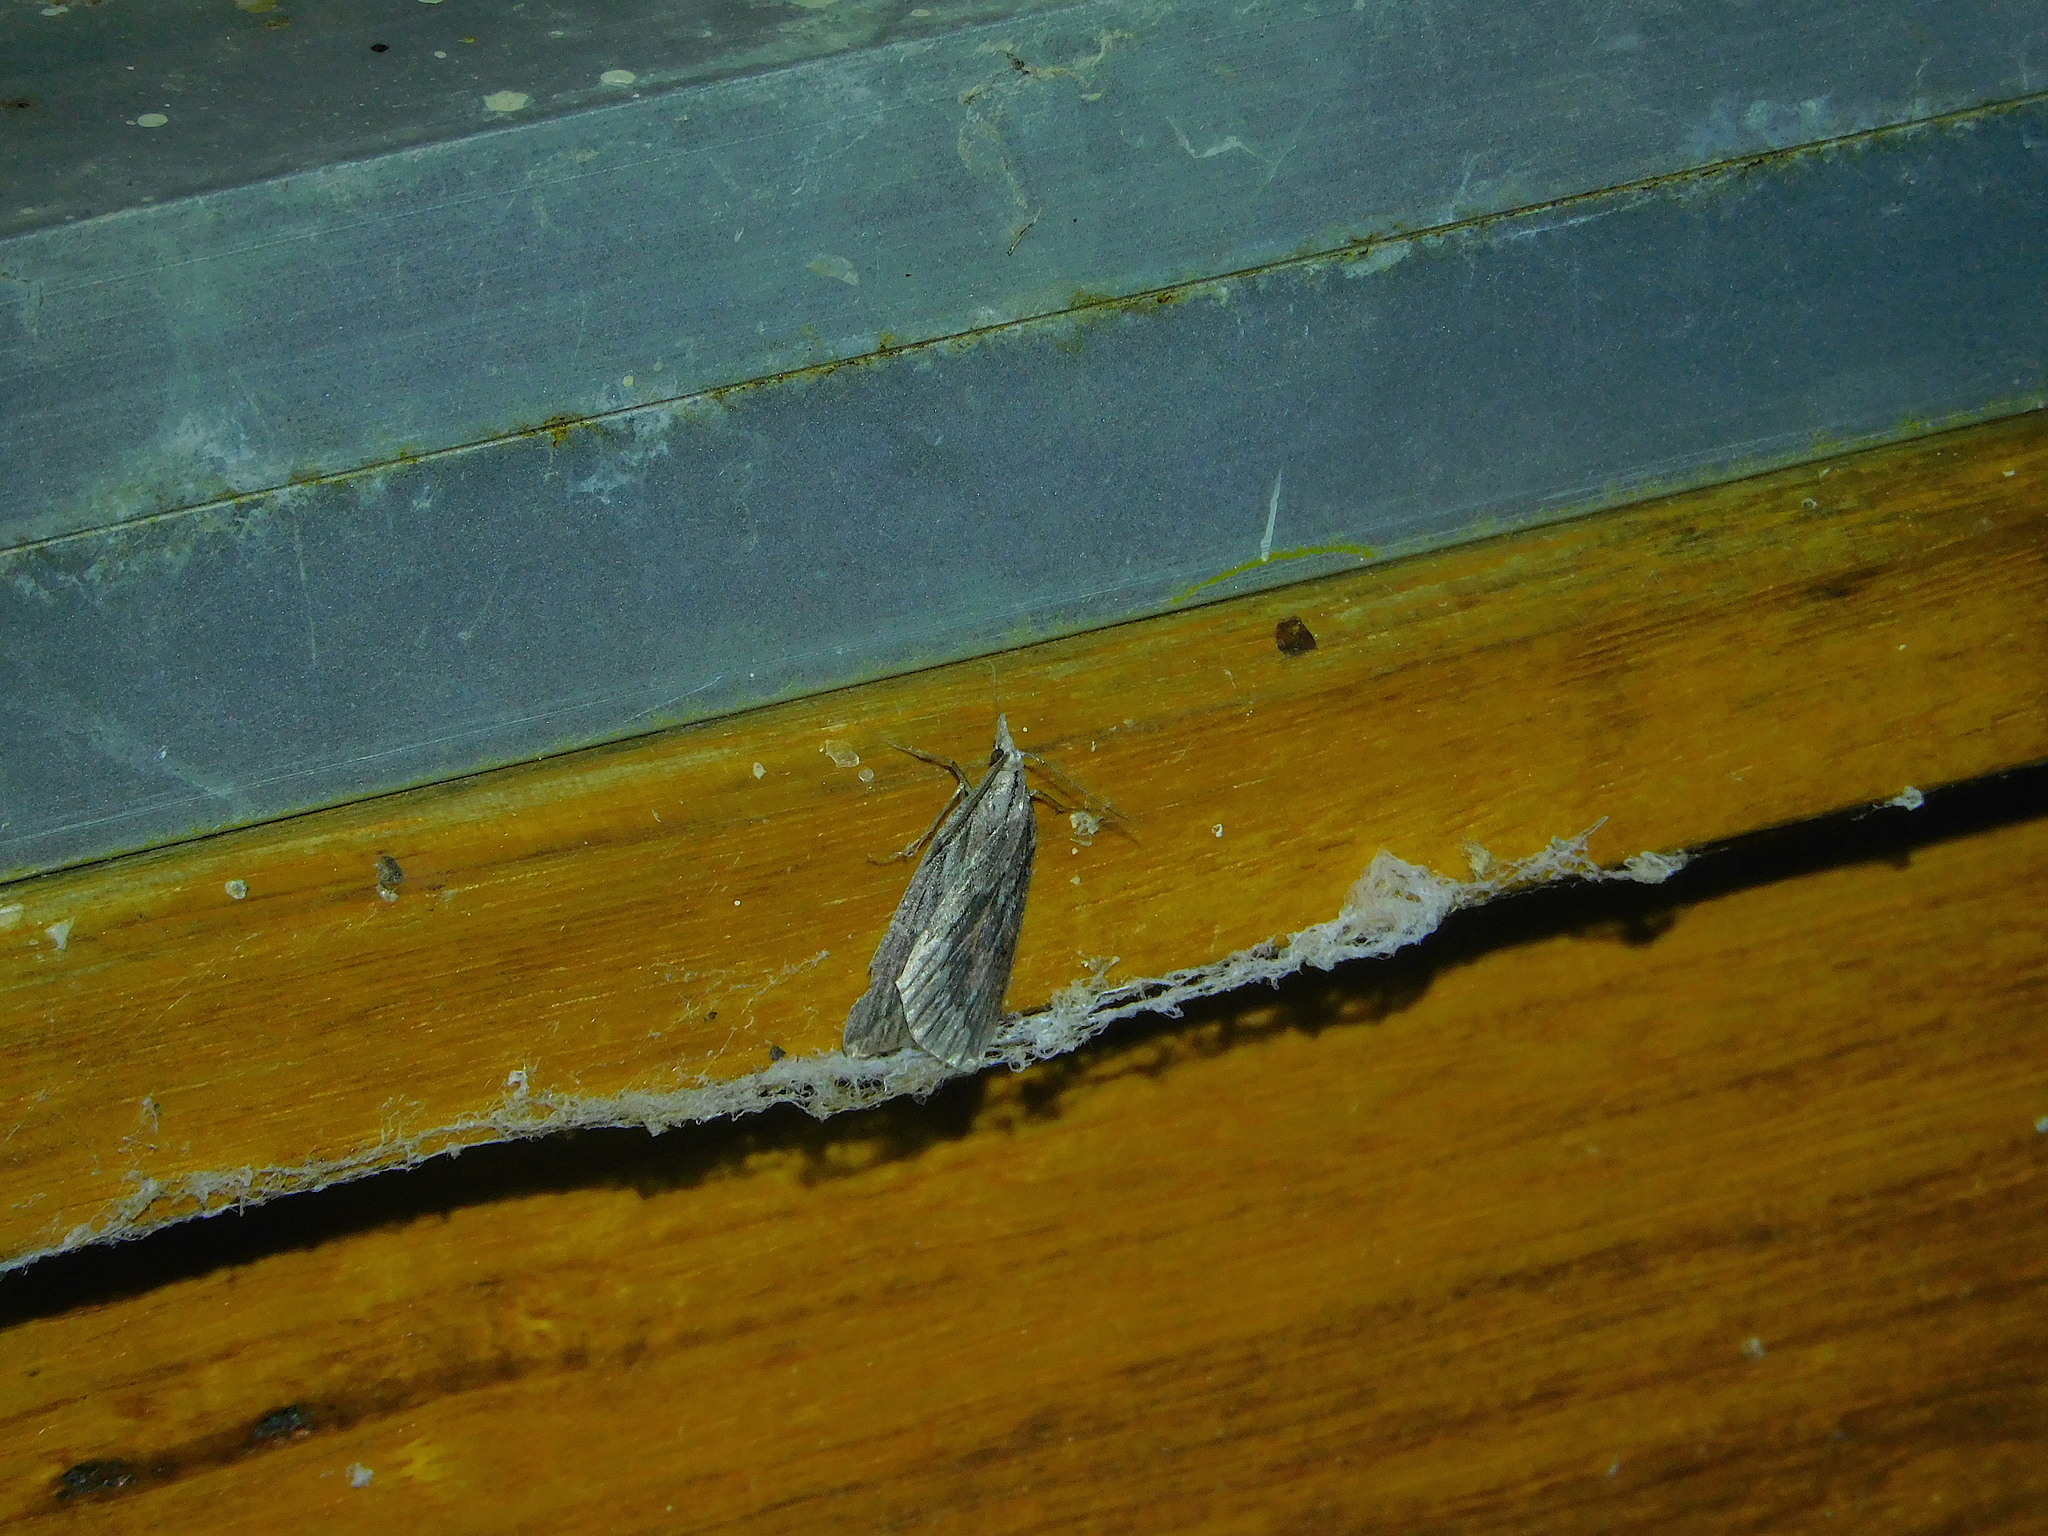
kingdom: Animalia
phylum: Arthropoda
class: Insecta
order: Lepidoptera
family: Geometridae
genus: Rhynchopsota
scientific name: Rhynchopsota rhyncophora
